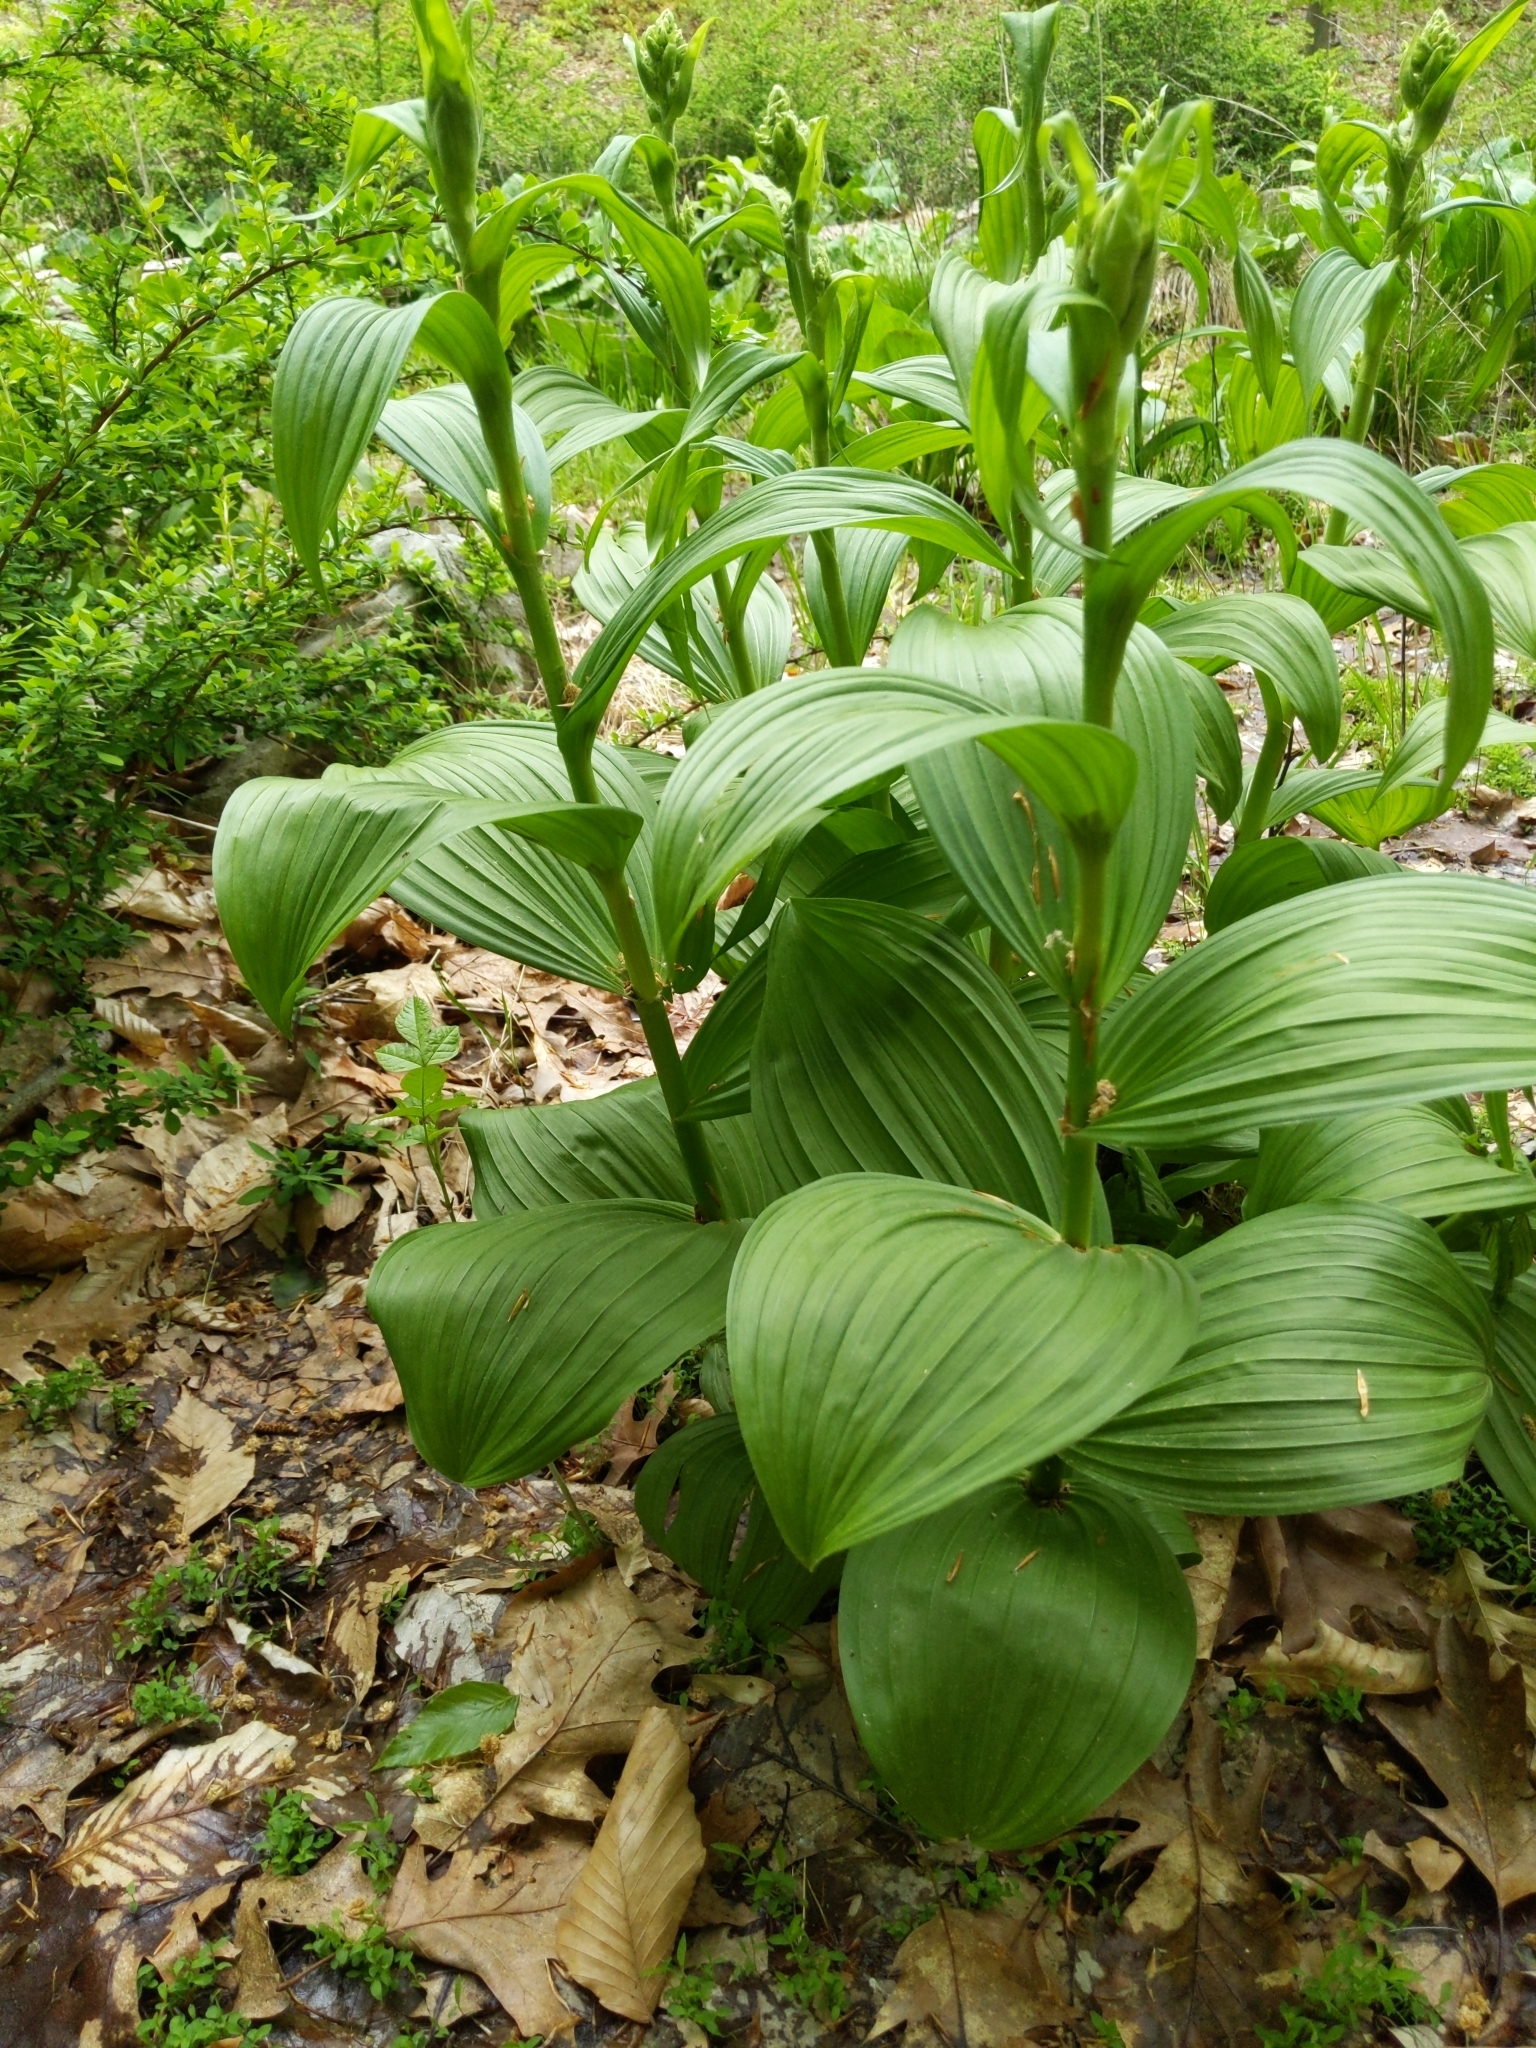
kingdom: Plantae
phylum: Tracheophyta
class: Liliopsida
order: Liliales
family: Melanthiaceae
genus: Veratrum
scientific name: Veratrum viride
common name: American false hellebore
